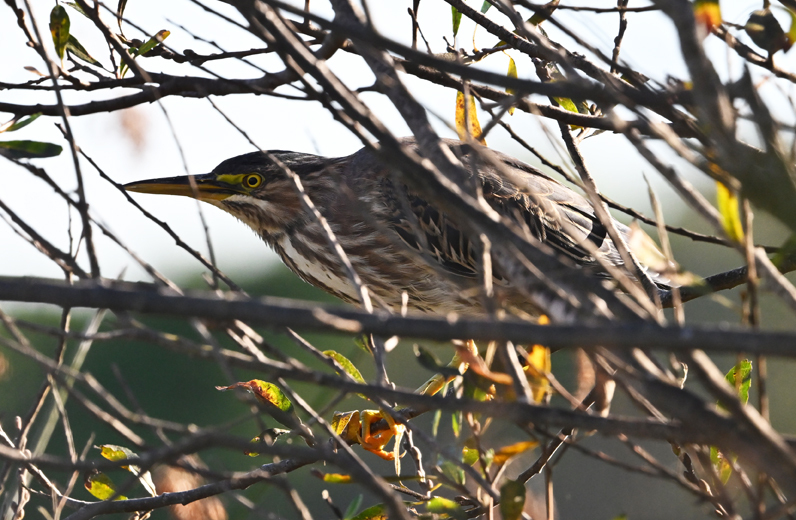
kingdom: Animalia
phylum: Chordata
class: Aves
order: Pelecaniformes
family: Ardeidae
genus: Butorides
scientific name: Butorides virescens
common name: Green heron
